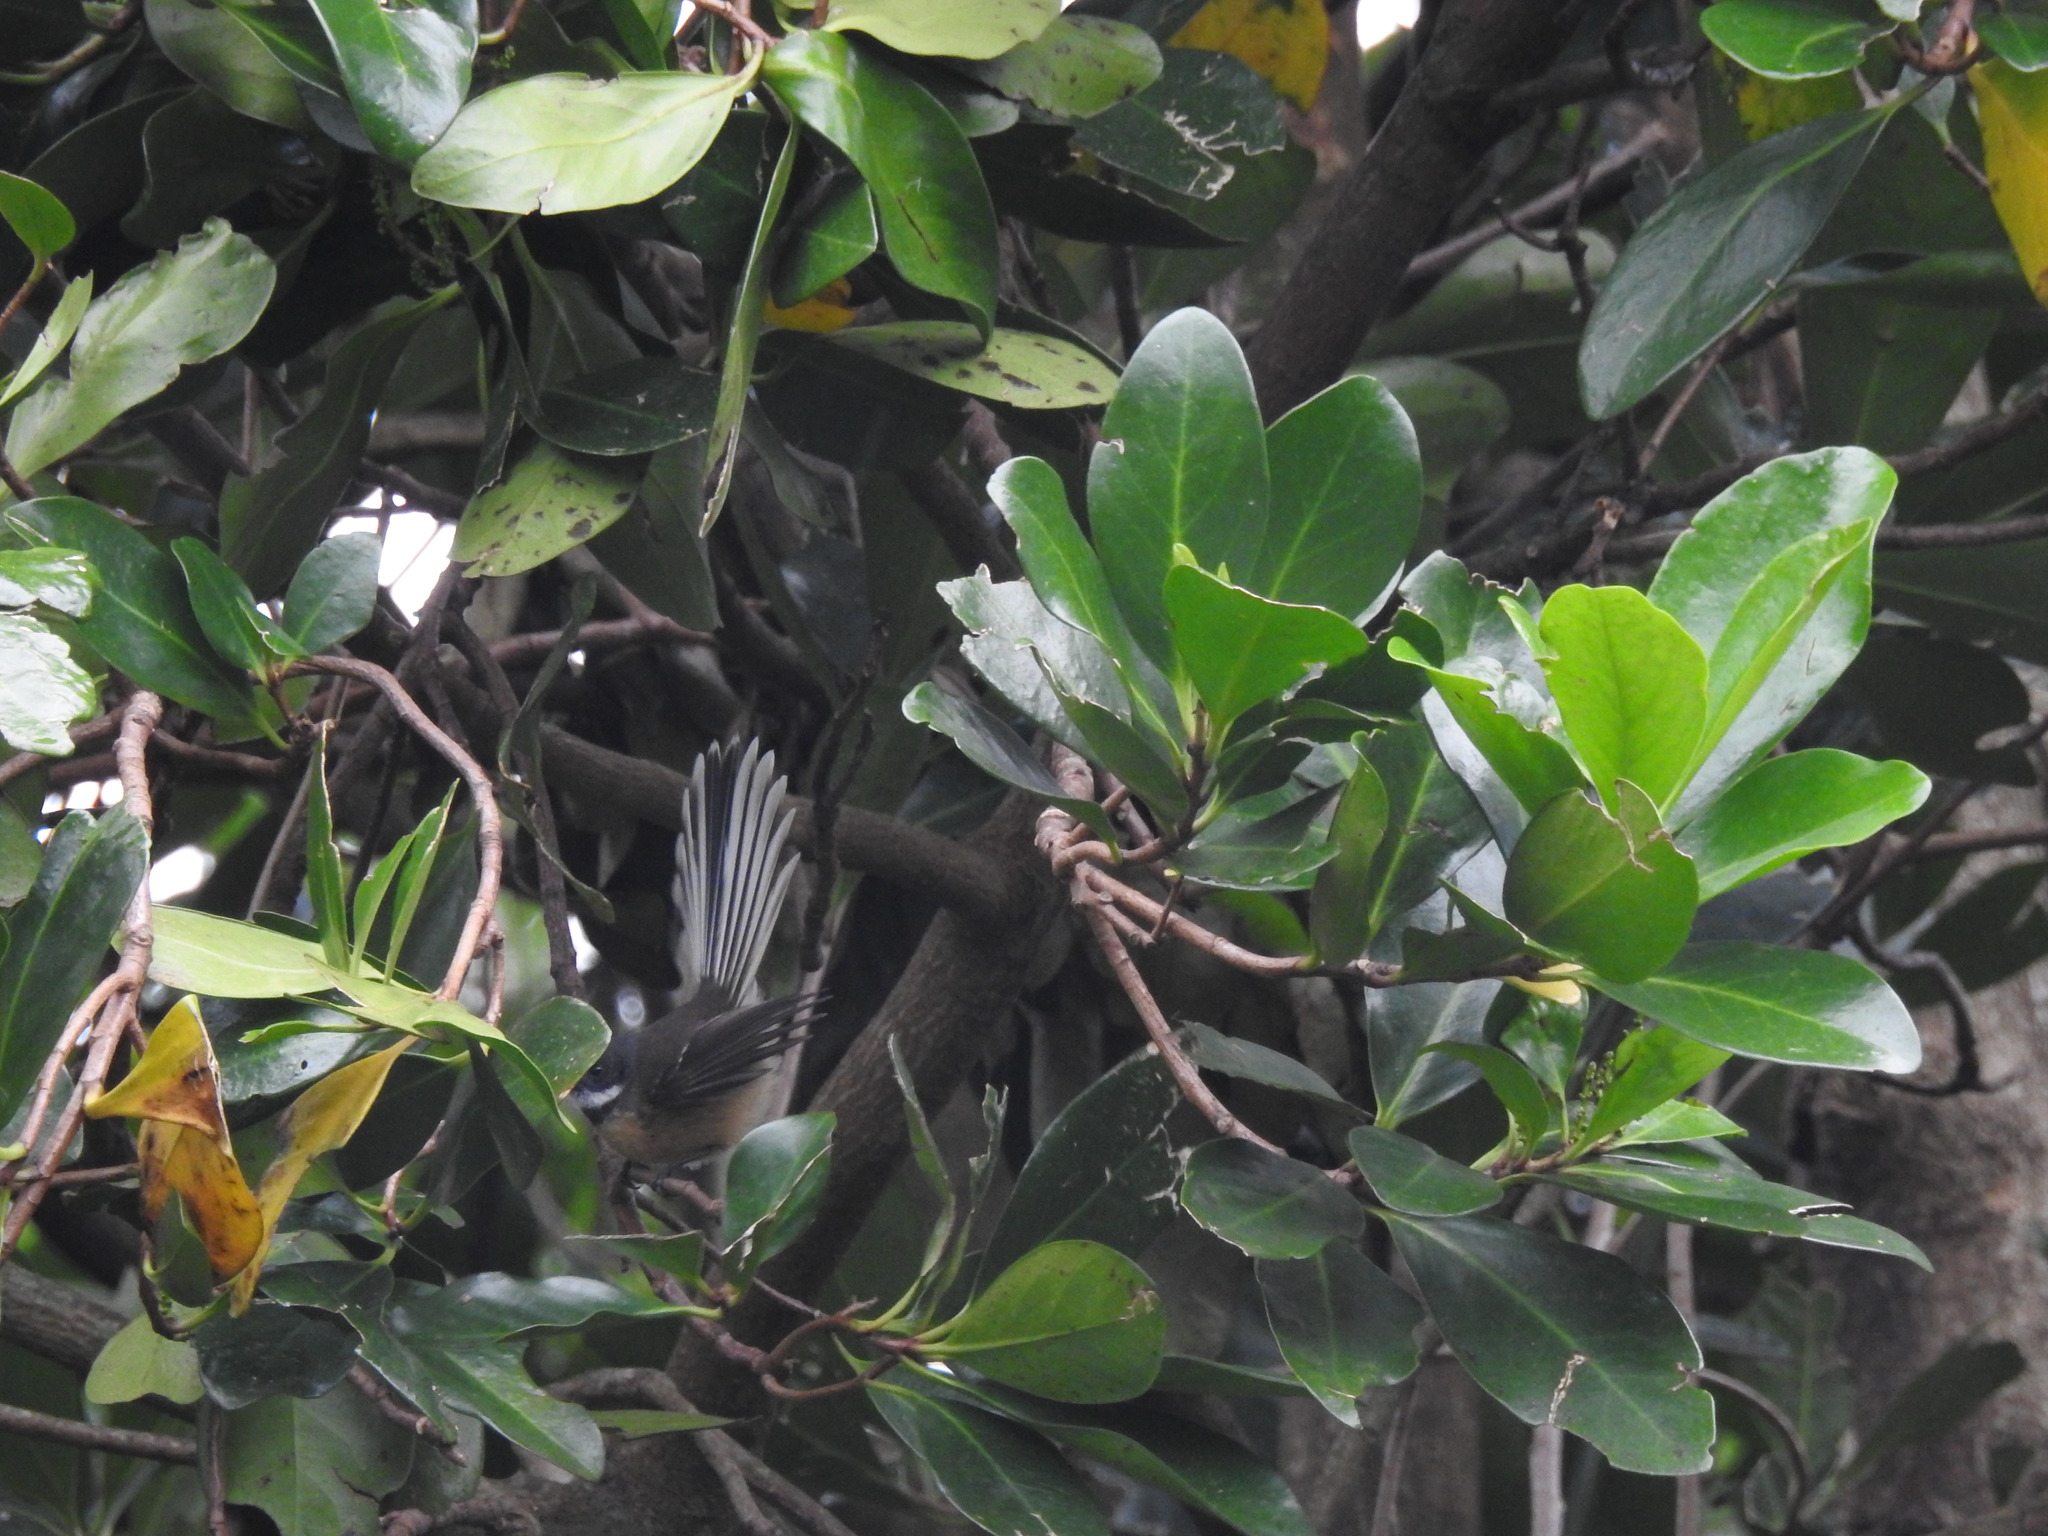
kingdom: Animalia
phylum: Chordata
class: Aves
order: Passeriformes
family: Rhipiduridae
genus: Rhipidura
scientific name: Rhipidura fuliginosa
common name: New zealand fantail
